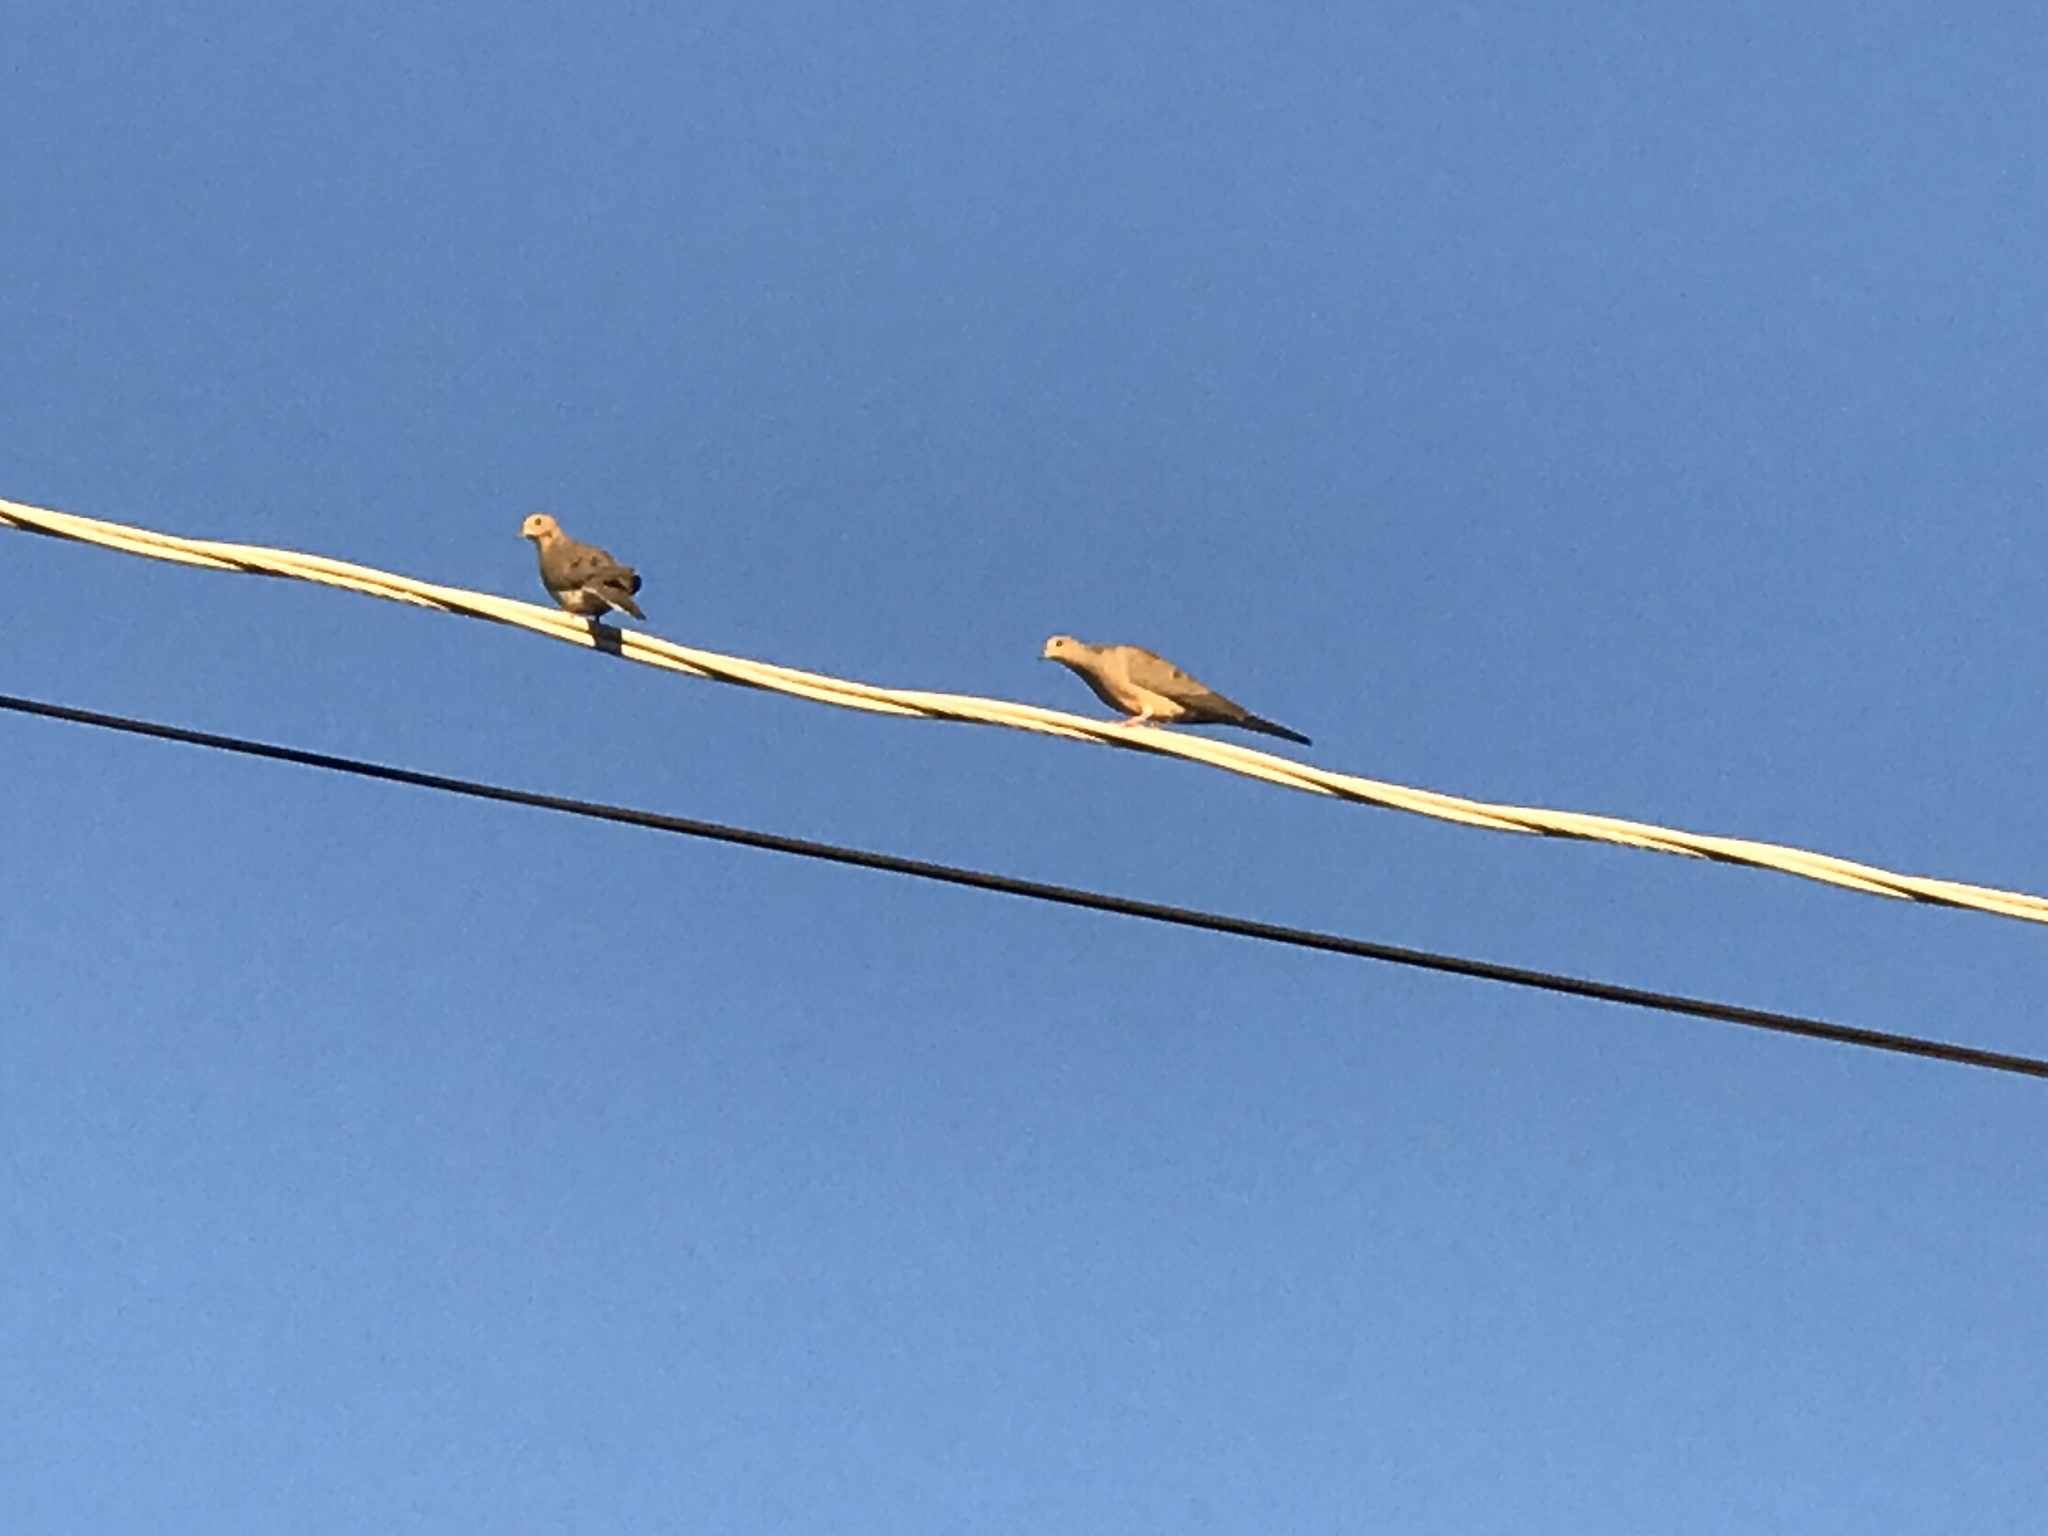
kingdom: Animalia
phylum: Chordata
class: Aves
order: Columbiformes
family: Columbidae
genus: Zenaida
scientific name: Zenaida macroura
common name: Mourning dove
